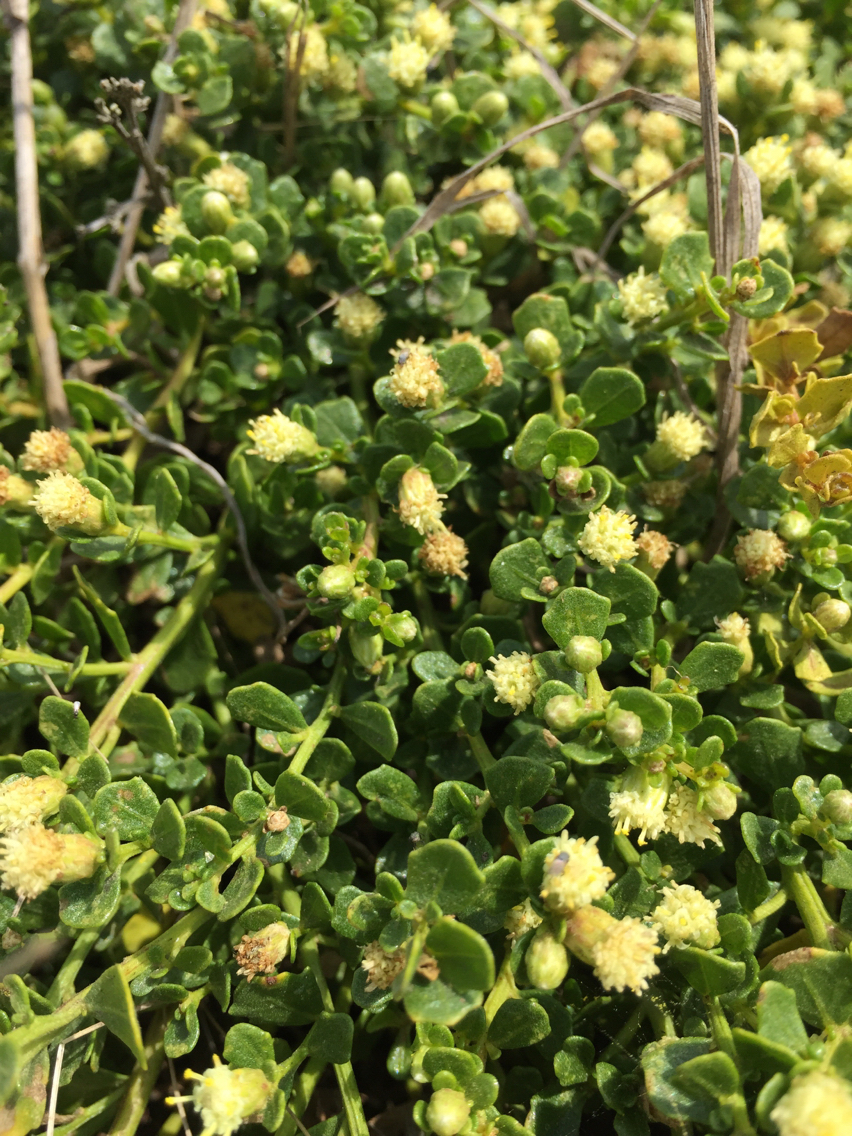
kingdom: Plantae
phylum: Tracheophyta
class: Magnoliopsida
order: Asterales
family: Asteraceae
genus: Baccharis
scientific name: Baccharis pilularis
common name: Coyotebrush
